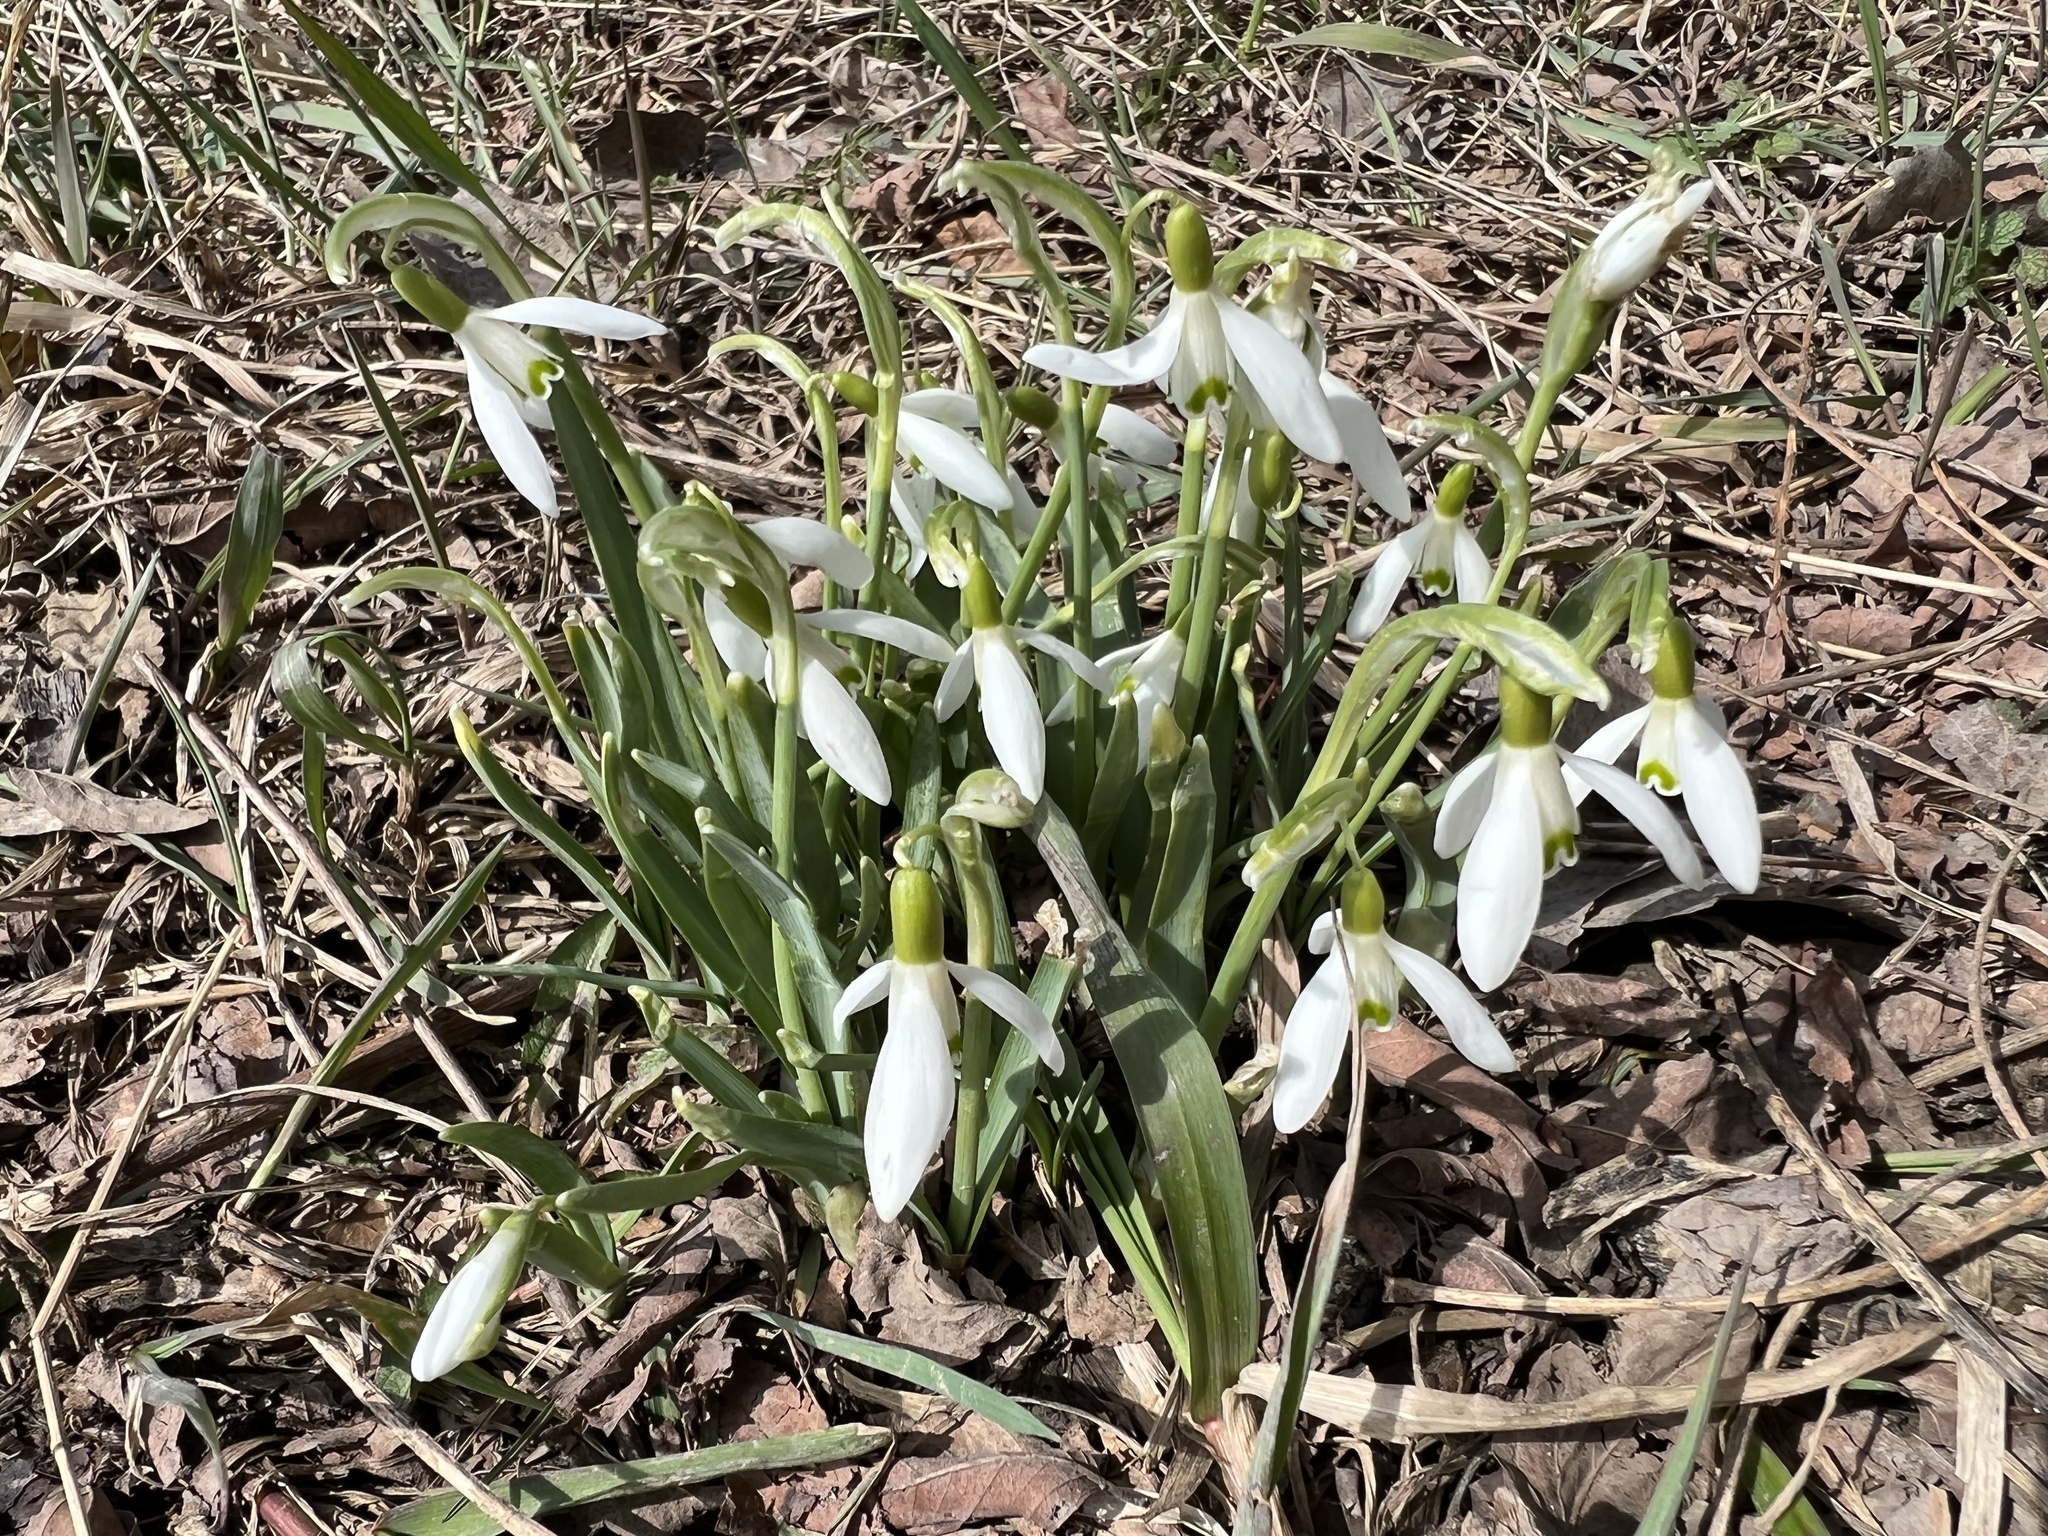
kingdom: Plantae
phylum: Tracheophyta
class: Liliopsida
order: Asparagales
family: Amaryllidaceae
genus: Galanthus
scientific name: Galanthus nivalis
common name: Snowdrop
